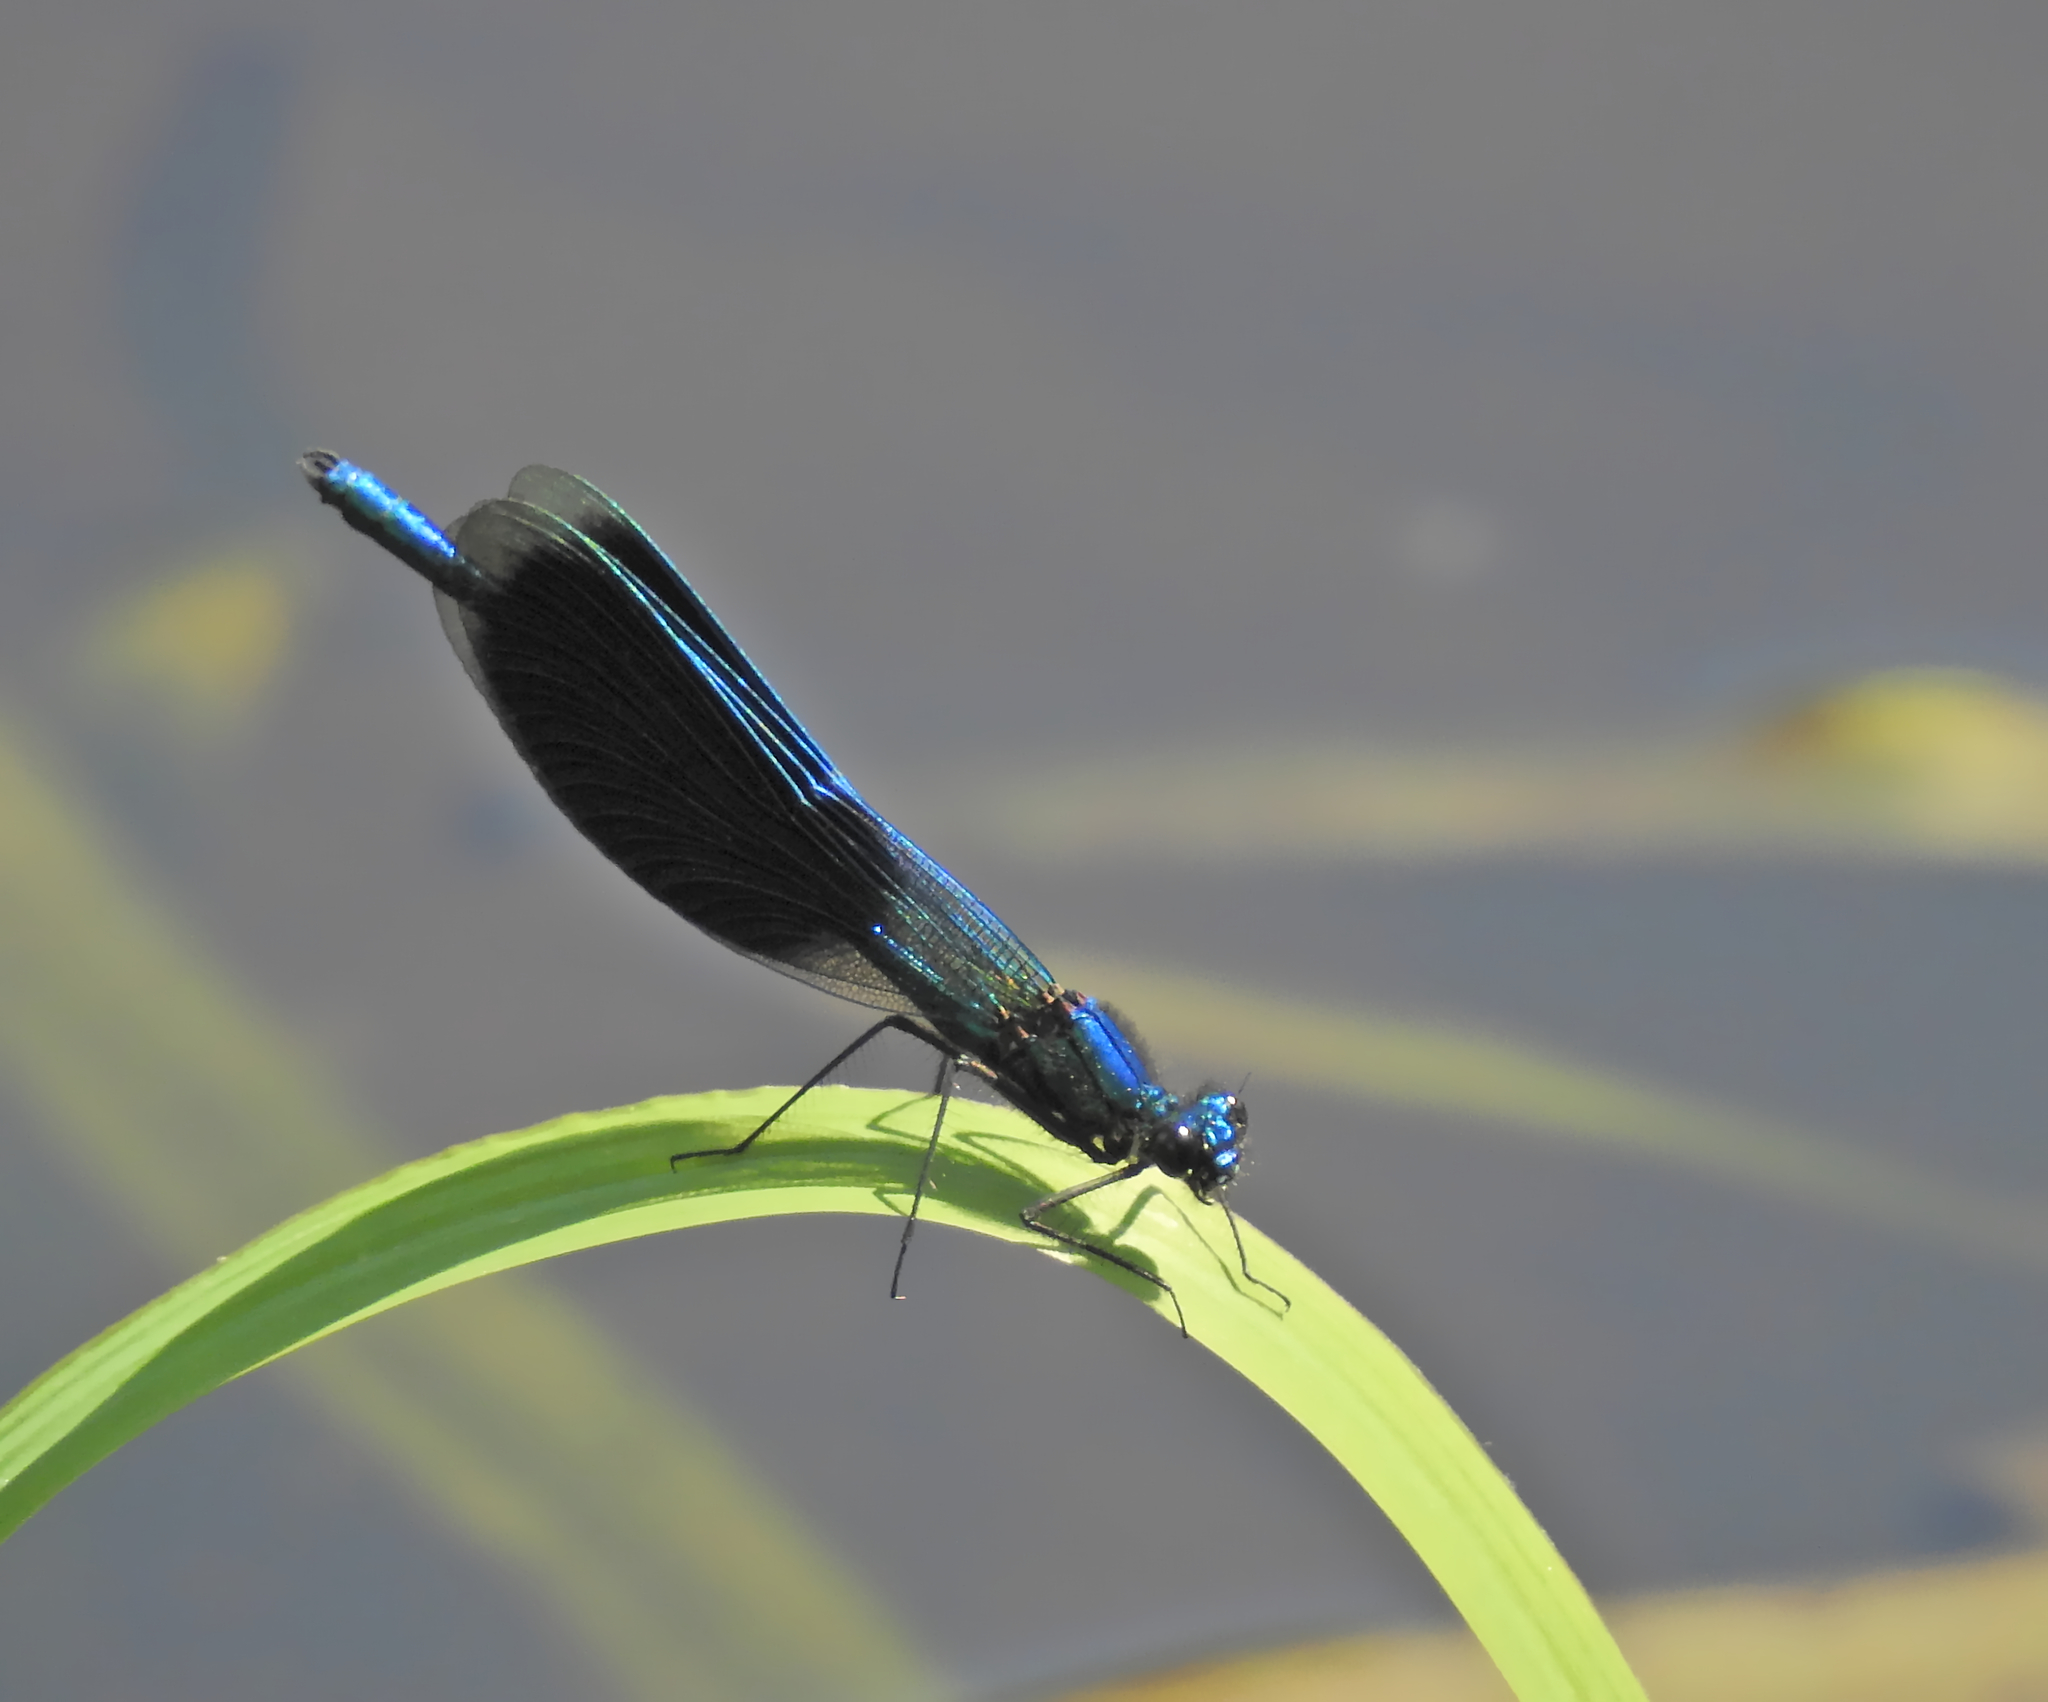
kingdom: Animalia
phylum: Arthropoda
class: Insecta
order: Odonata
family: Calopterygidae
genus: Calopteryx
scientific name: Calopteryx splendens
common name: Banded demoiselle
